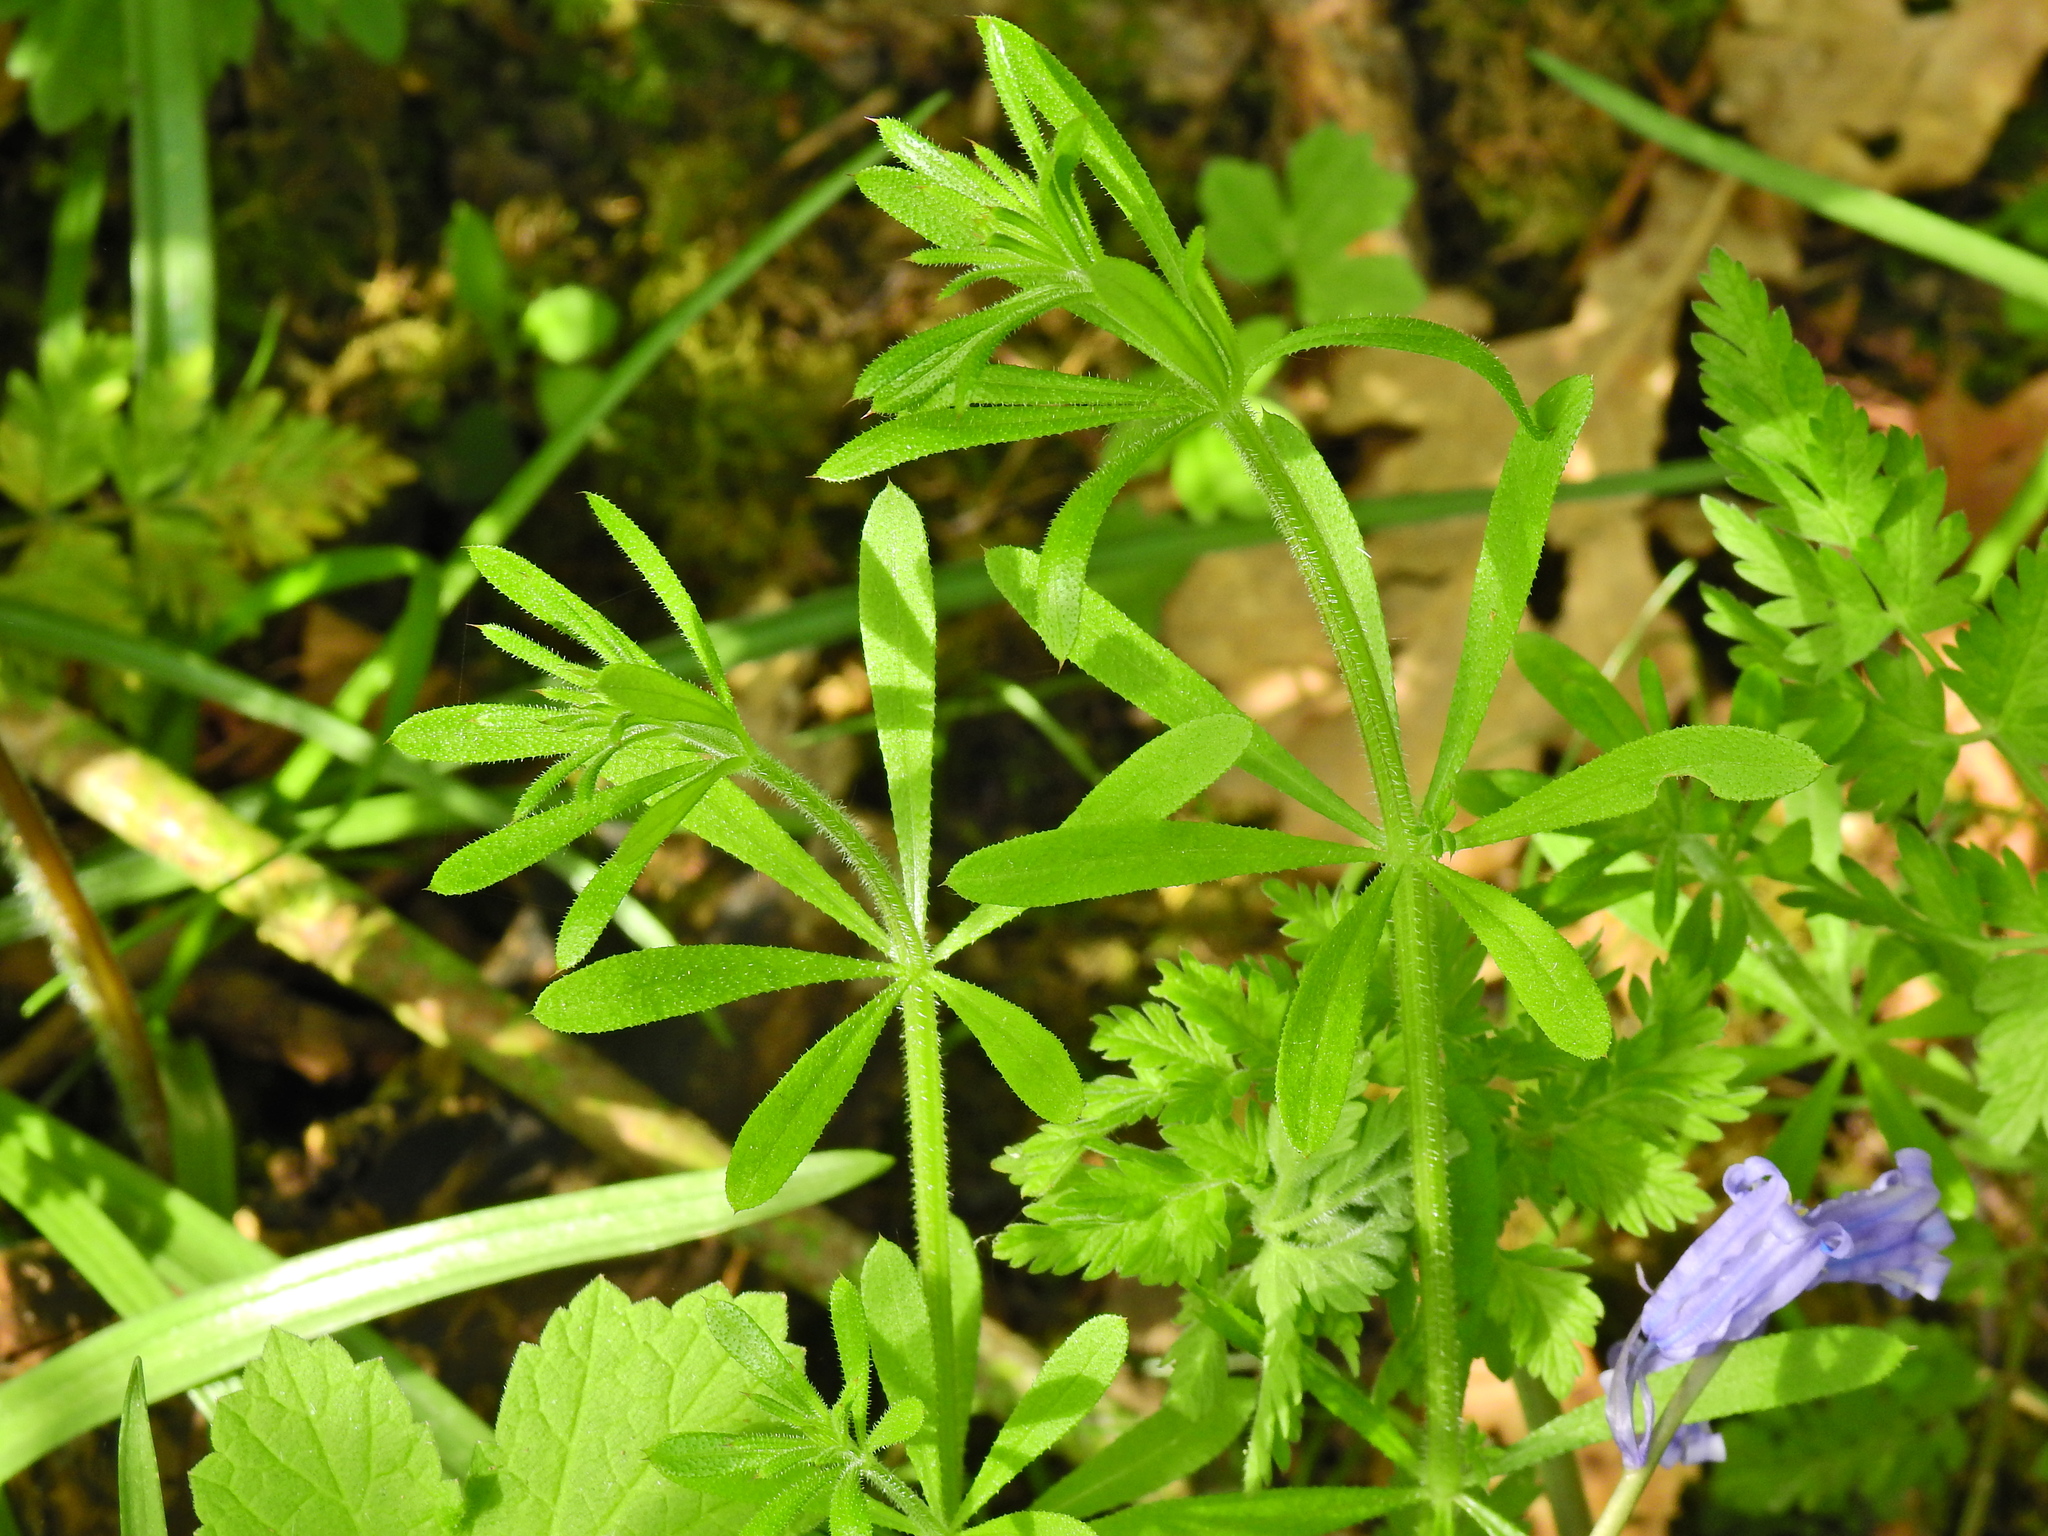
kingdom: Plantae
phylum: Tracheophyta
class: Magnoliopsida
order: Gentianales
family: Rubiaceae
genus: Galium
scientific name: Galium aparine
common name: Cleavers
